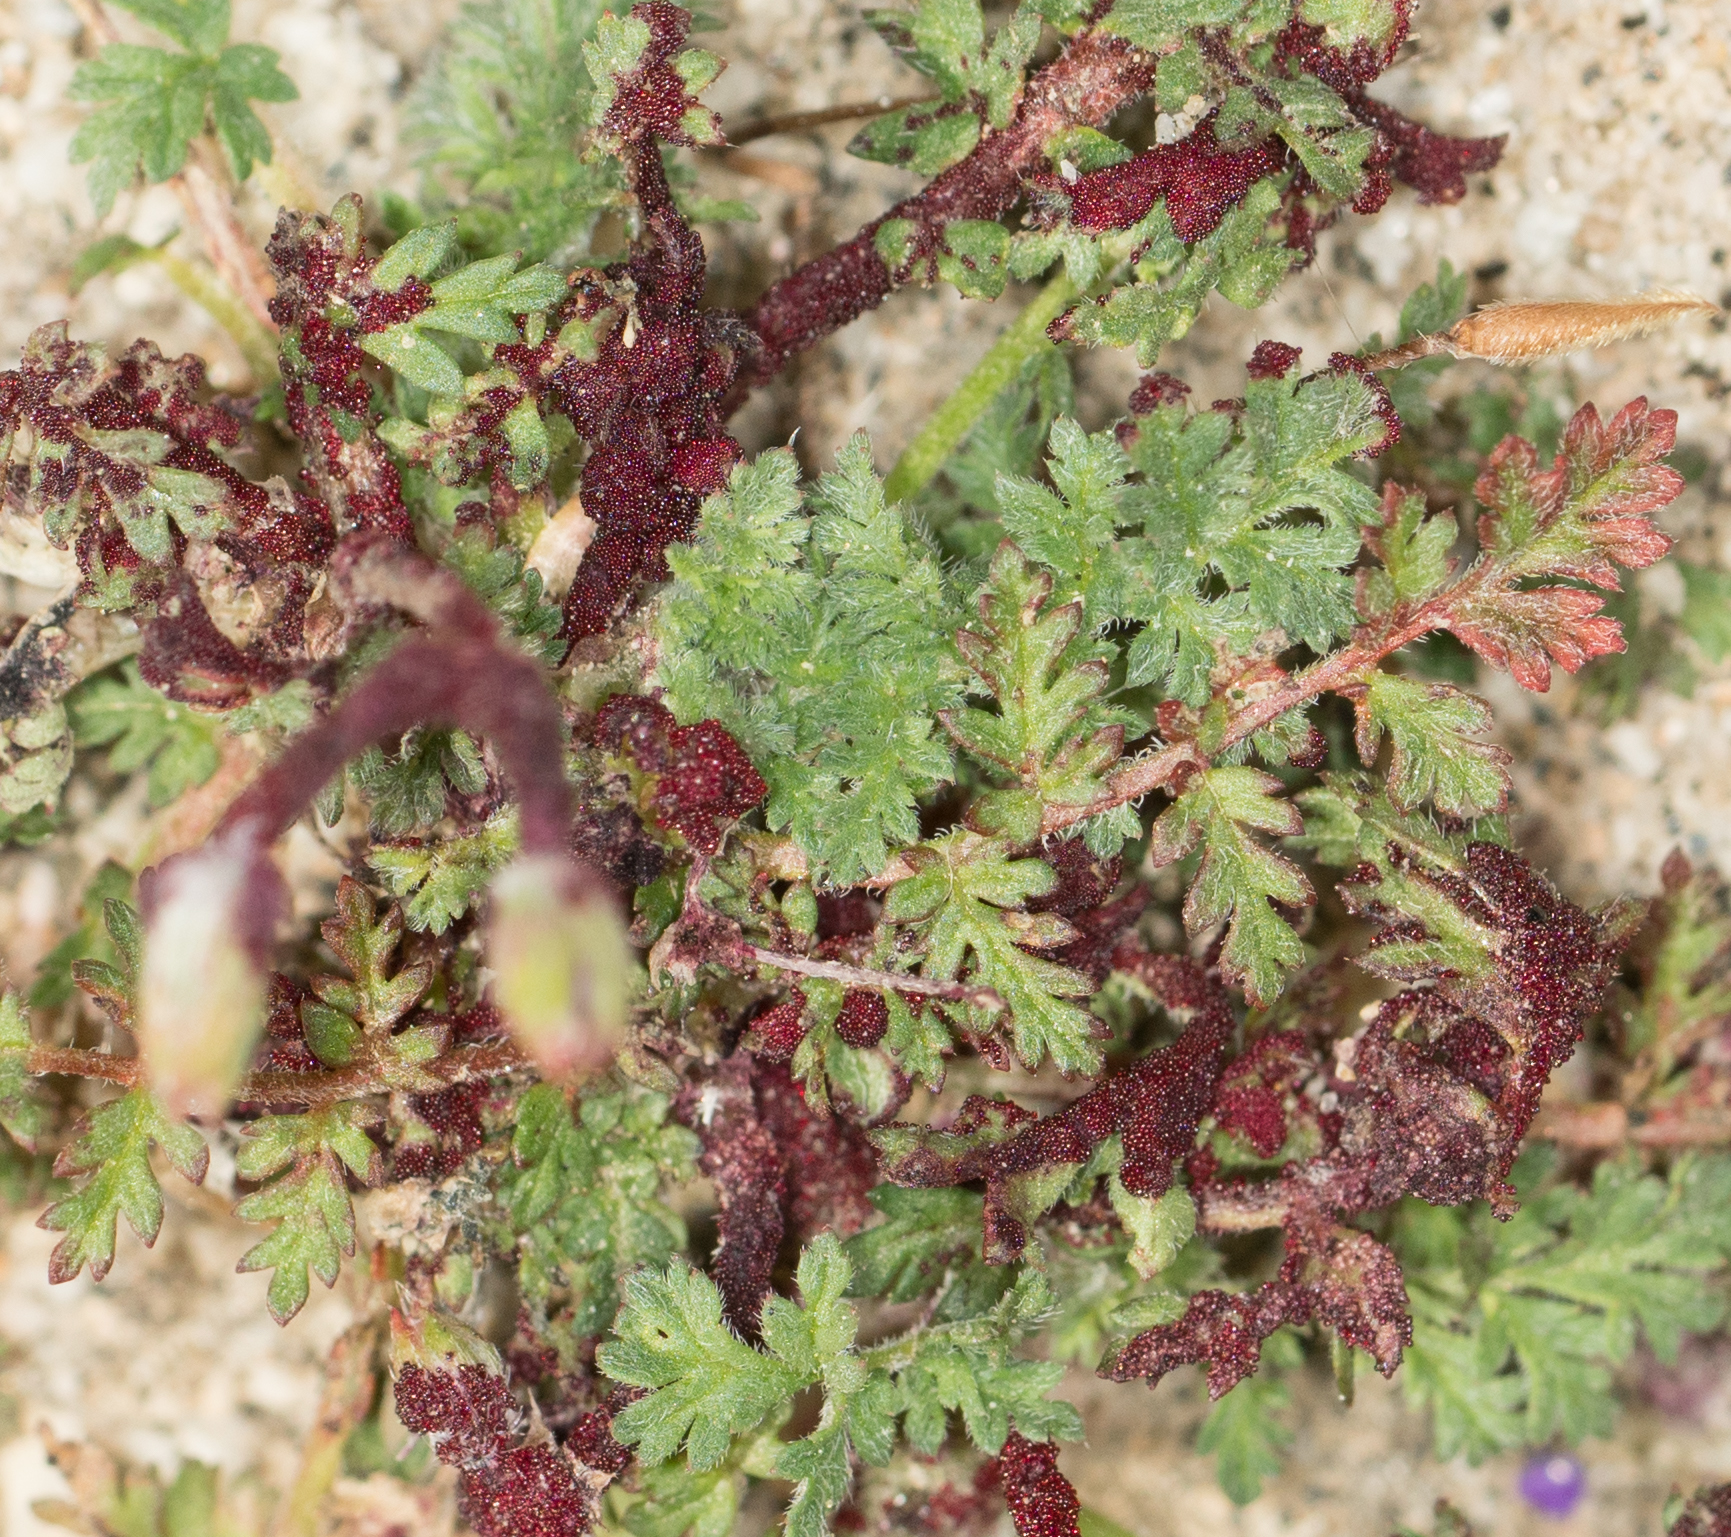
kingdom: Fungi
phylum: Chytridiomycota
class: Chytridiomycetes
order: Chytridiales
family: Synchytriaceae
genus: Synchytrium
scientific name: Synchytrium papillatum
